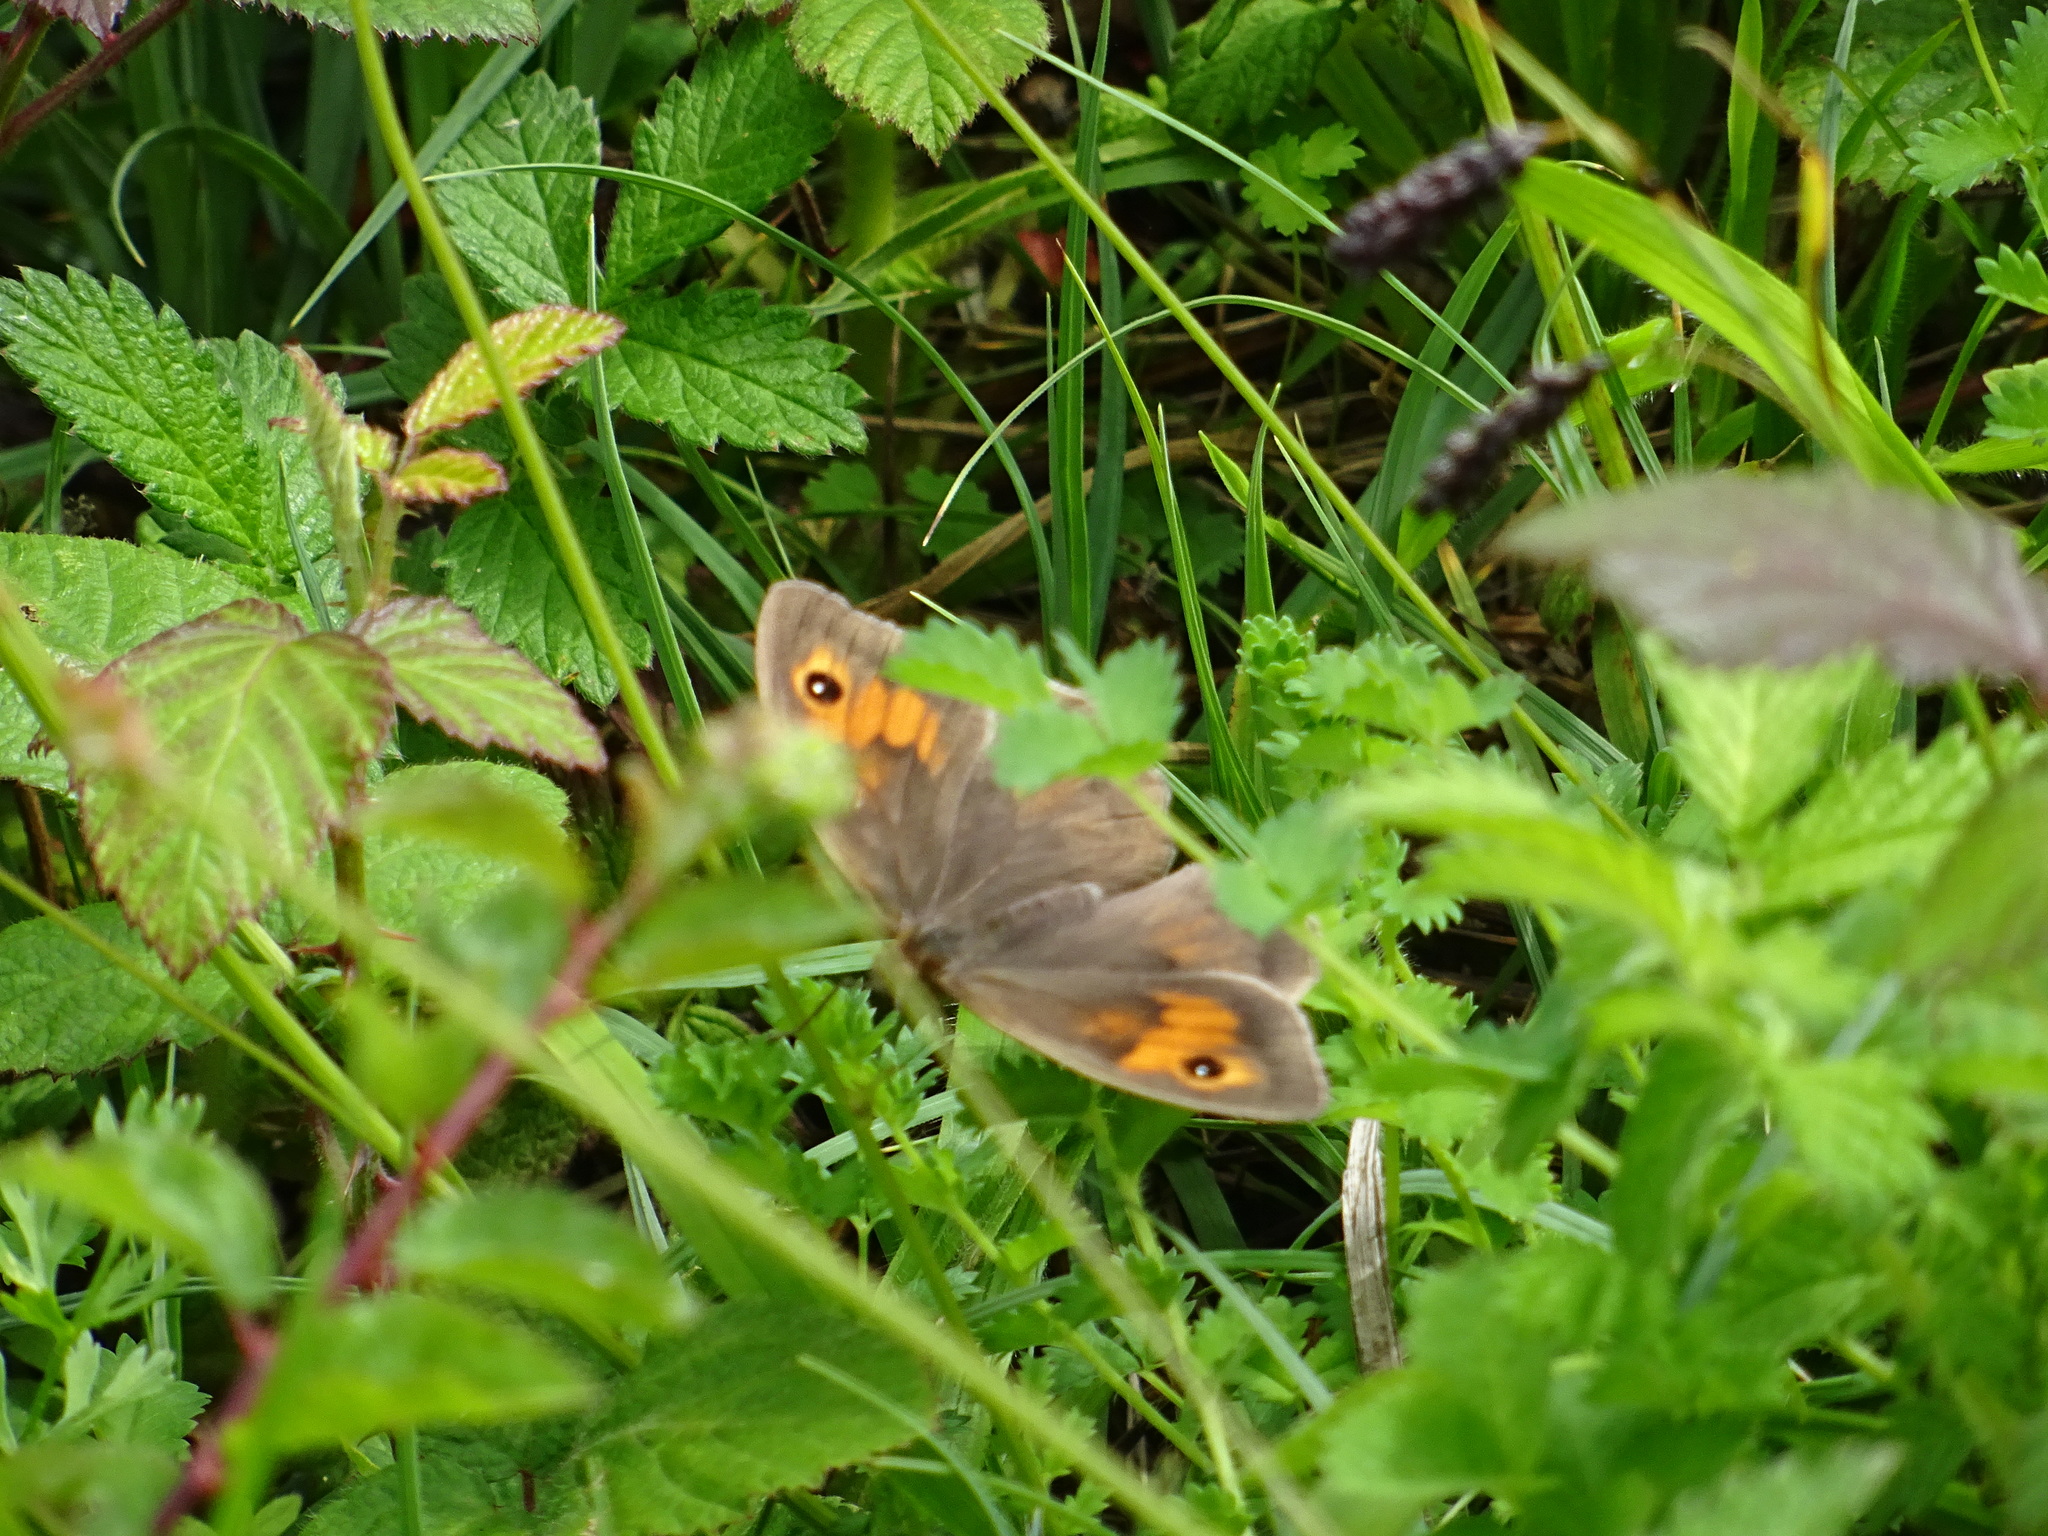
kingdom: Animalia
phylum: Arthropoda
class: Insecta
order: Lepidoptera
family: Nymphalidae
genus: Maniola
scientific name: Maniola jurtina
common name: Meadow brown
